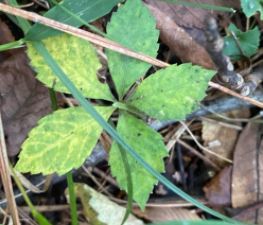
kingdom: Plantae
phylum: Tracheophyta
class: Magnoliopsida
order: Vitales
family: Vitaceae
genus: Parthenocissus
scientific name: Parthenocissus quinquefolia
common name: Virginia-creeper
